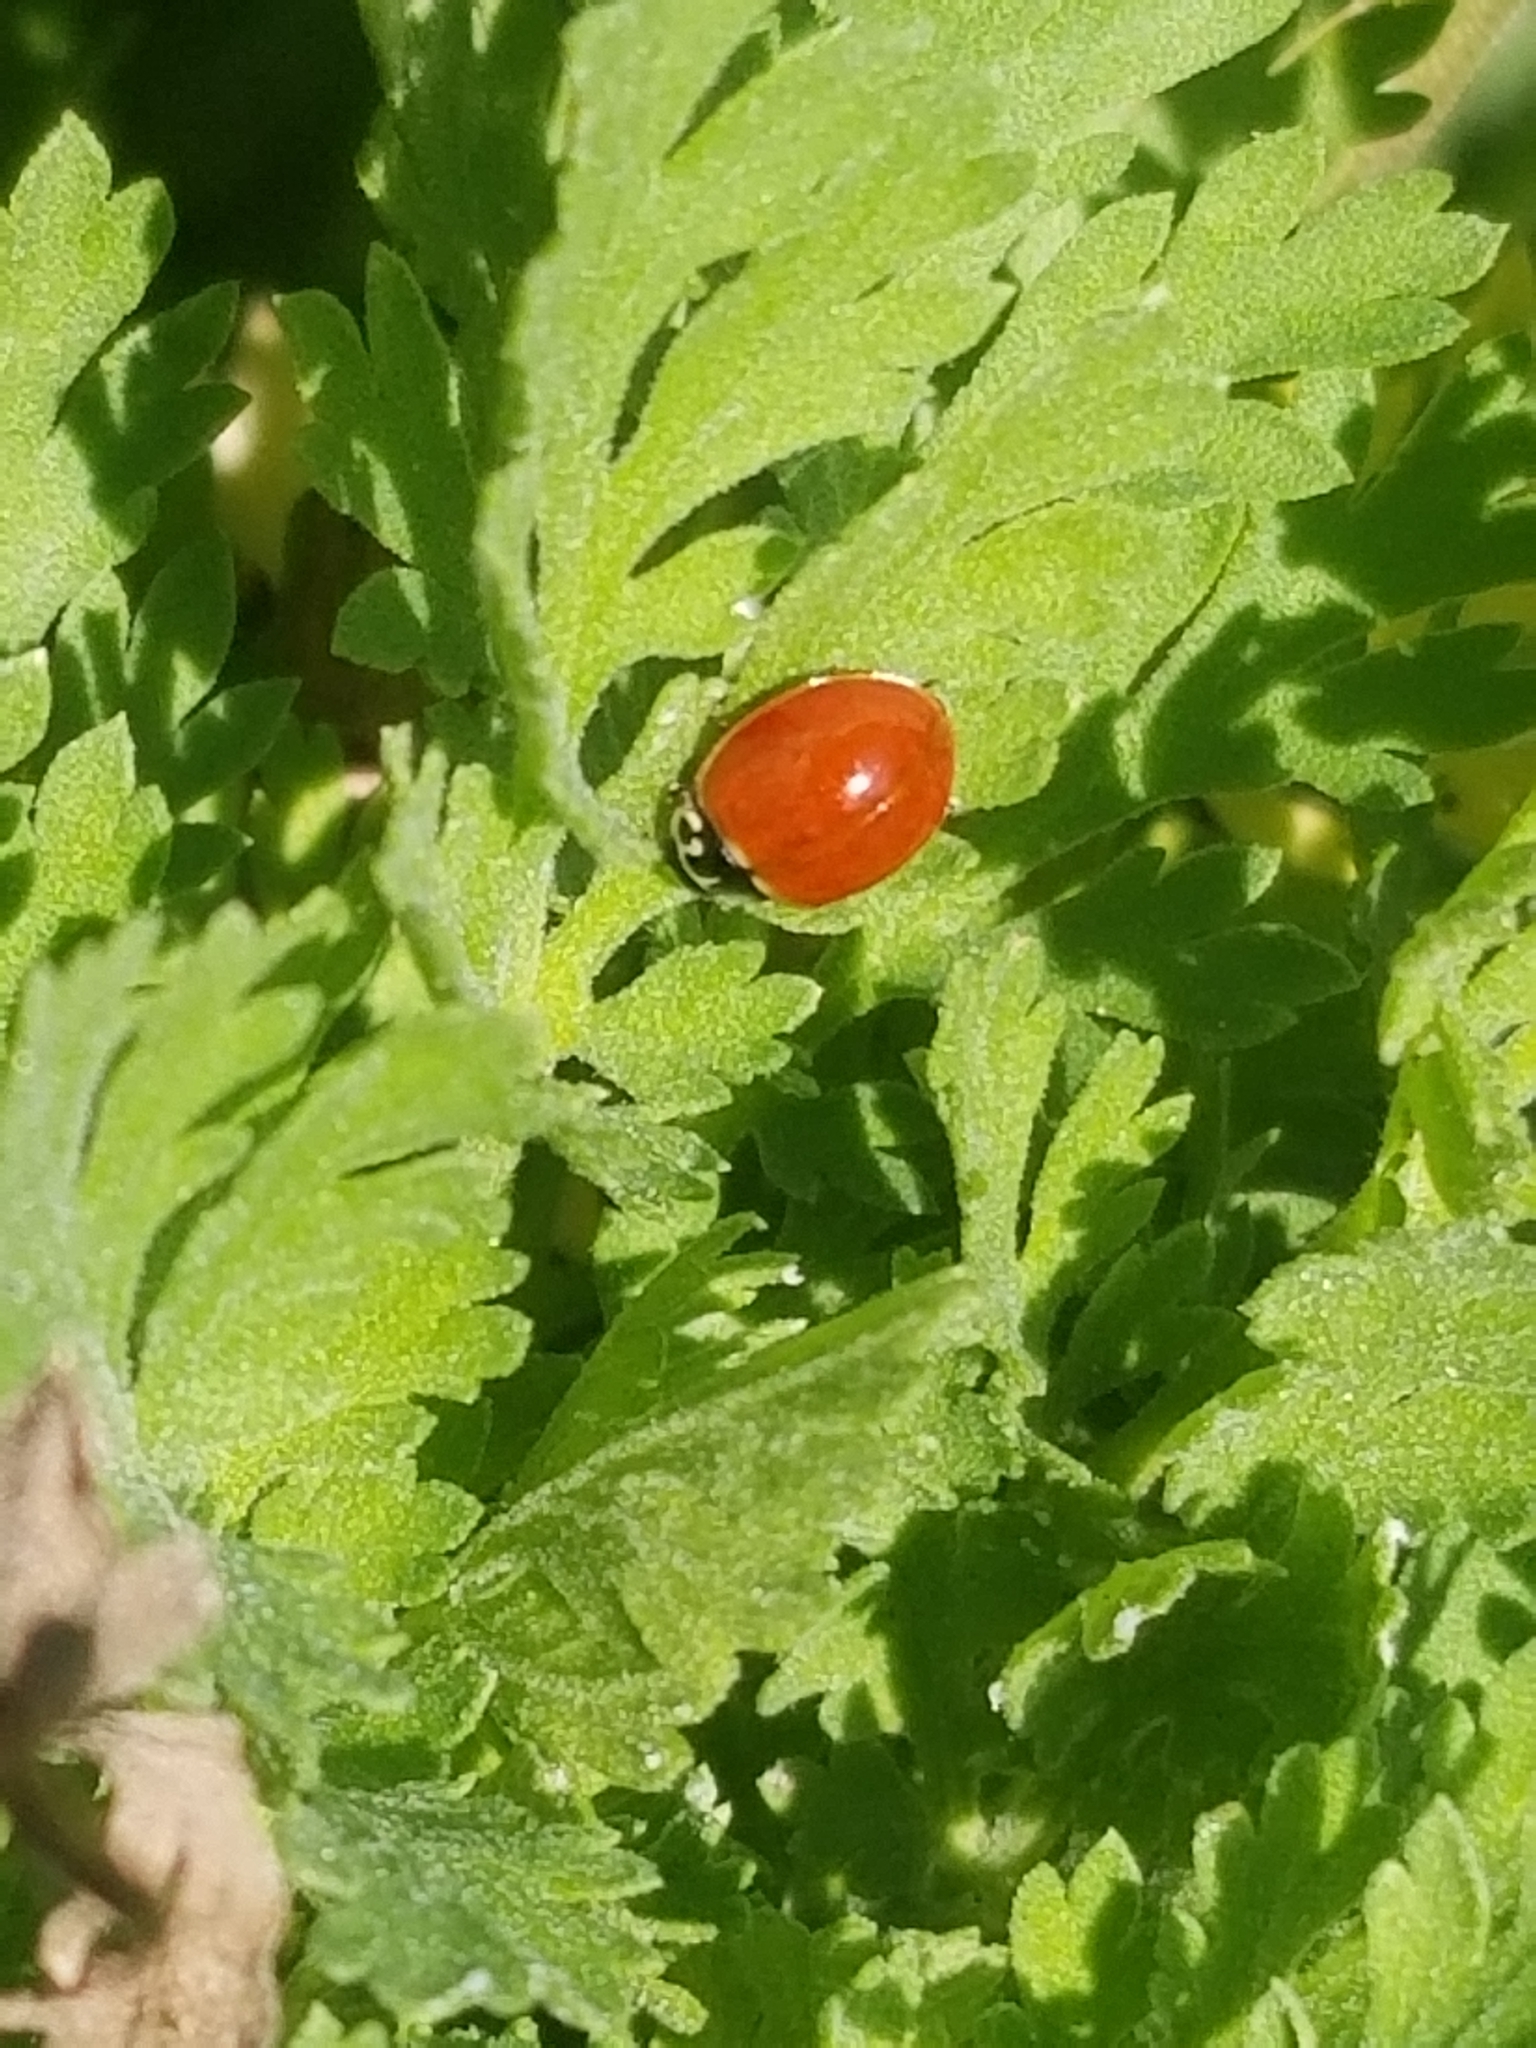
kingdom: Animalia
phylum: Arthropoda
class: Insecta
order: Coleoptera
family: Coccinellidae
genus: Cycloneda
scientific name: Cycloneda polita
